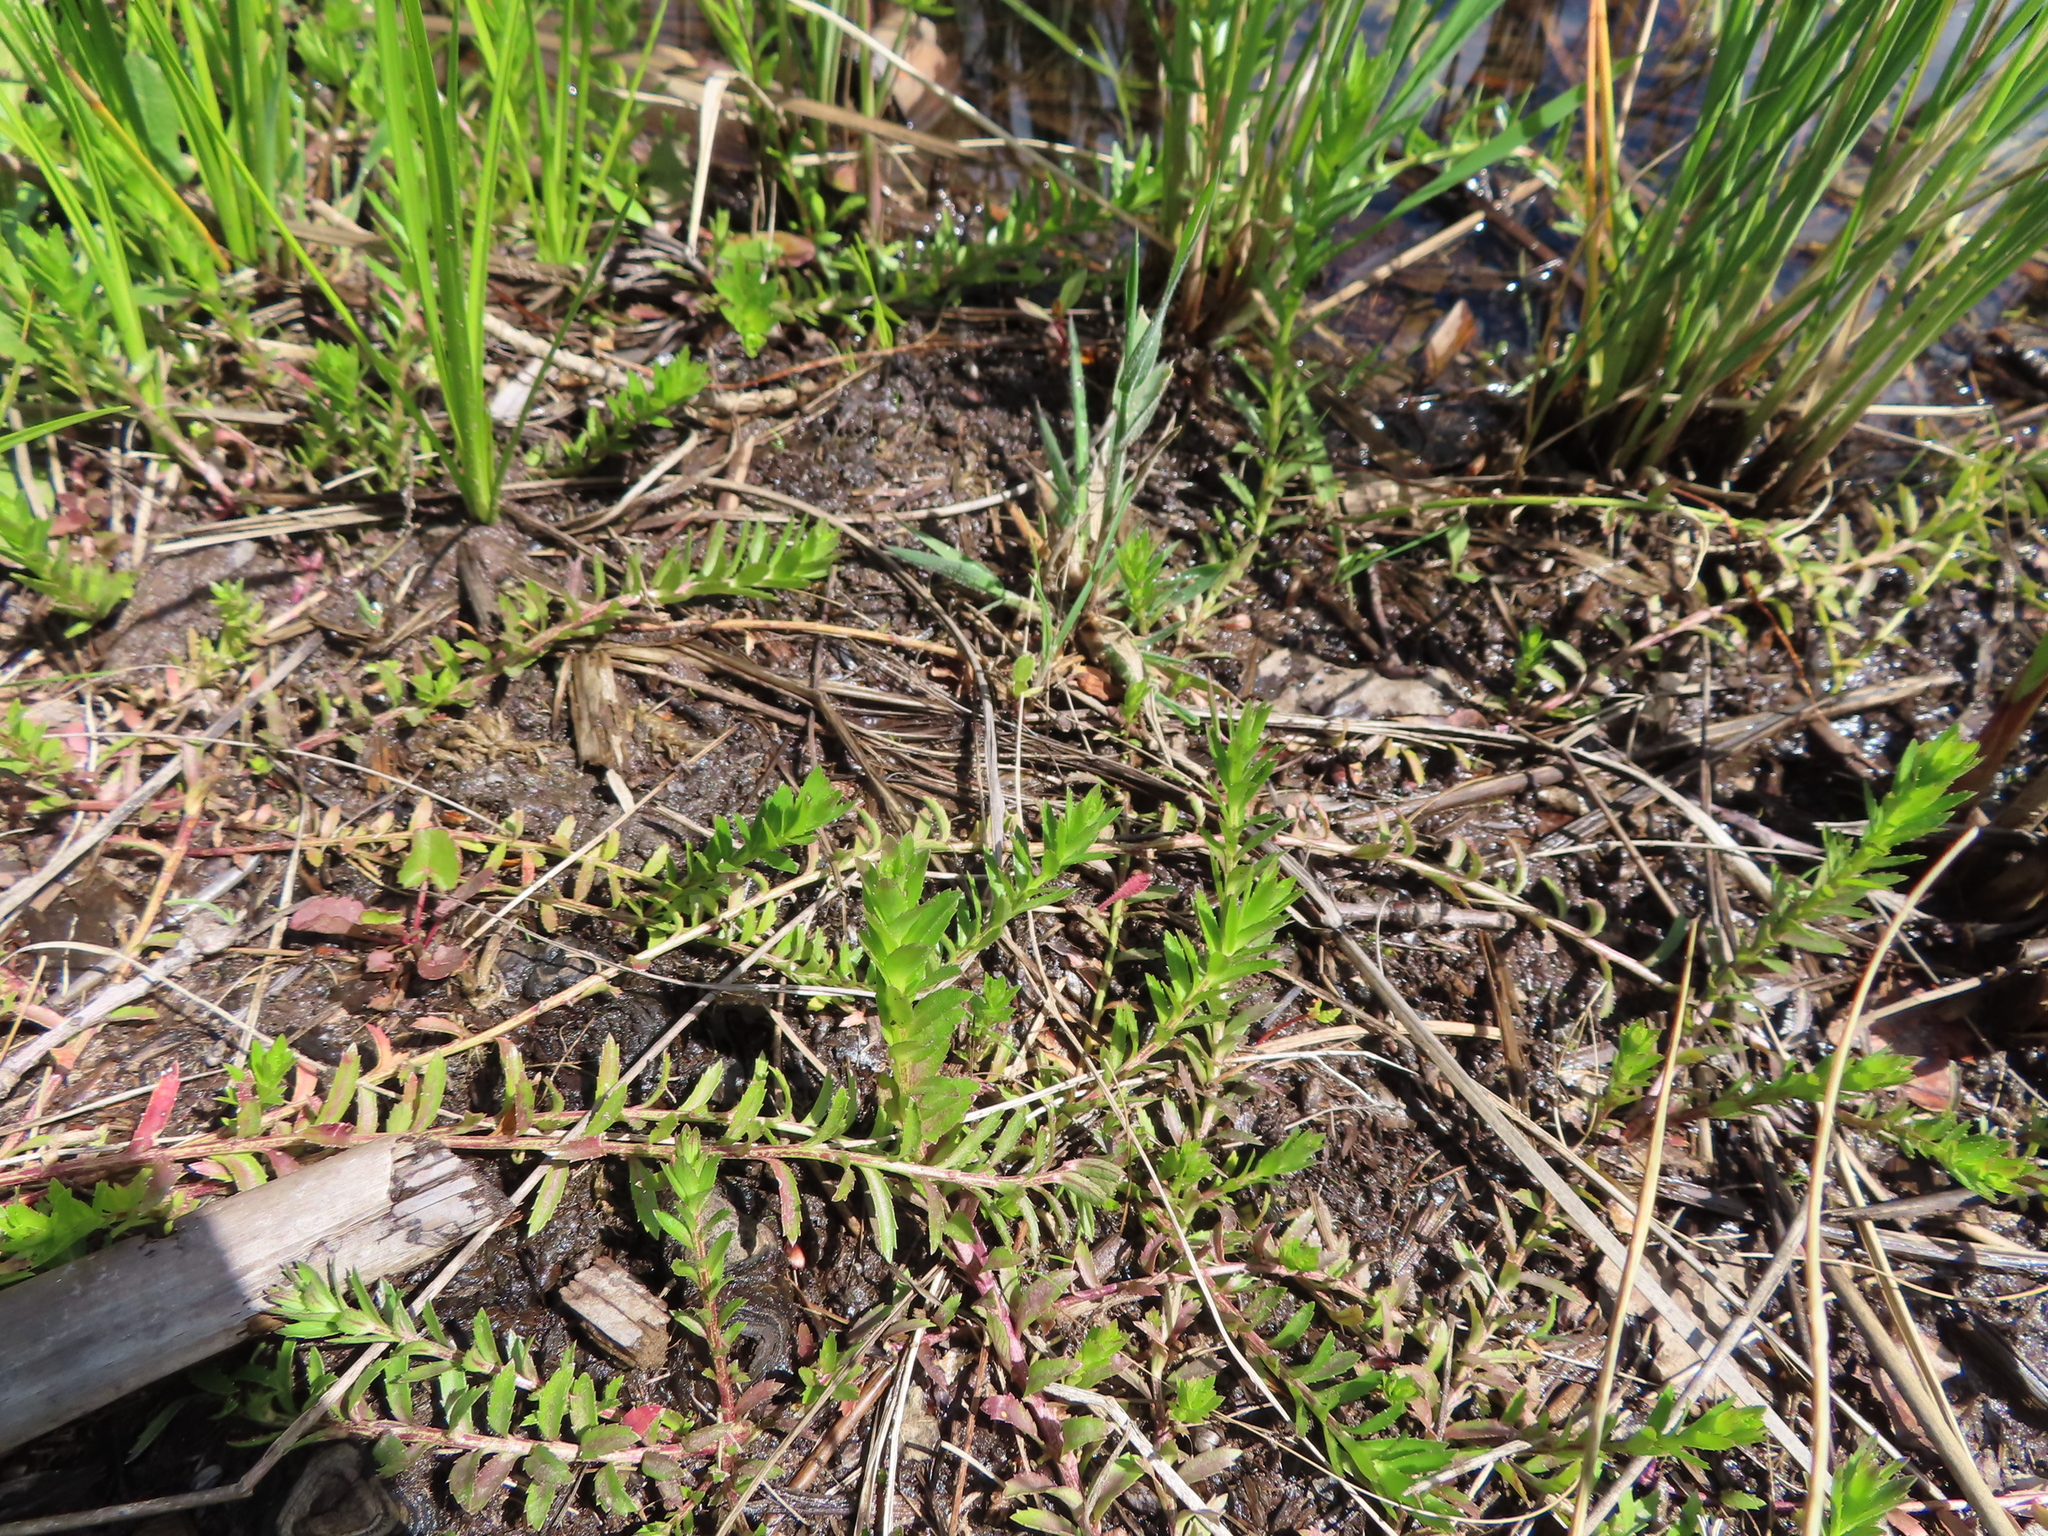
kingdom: Plantae
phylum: Tracheophyta
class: Magnoliopsida
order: Asterales
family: Campanulaceae
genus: Monopsis
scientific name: Monopsis lutea
